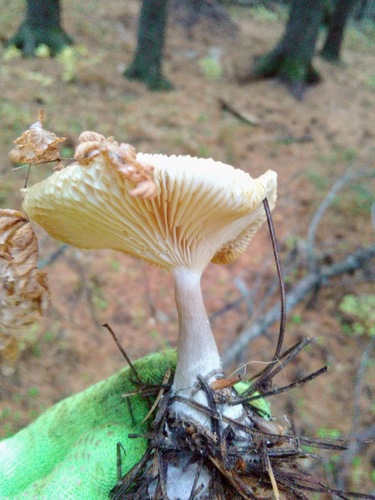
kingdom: Fungi
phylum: Basidiomycota
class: Agaricomycetes
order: Agaricales
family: Hygrophoraceae
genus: Ampulloclitocybe
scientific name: Ampulloclitocybe clavipes
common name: Club foot
